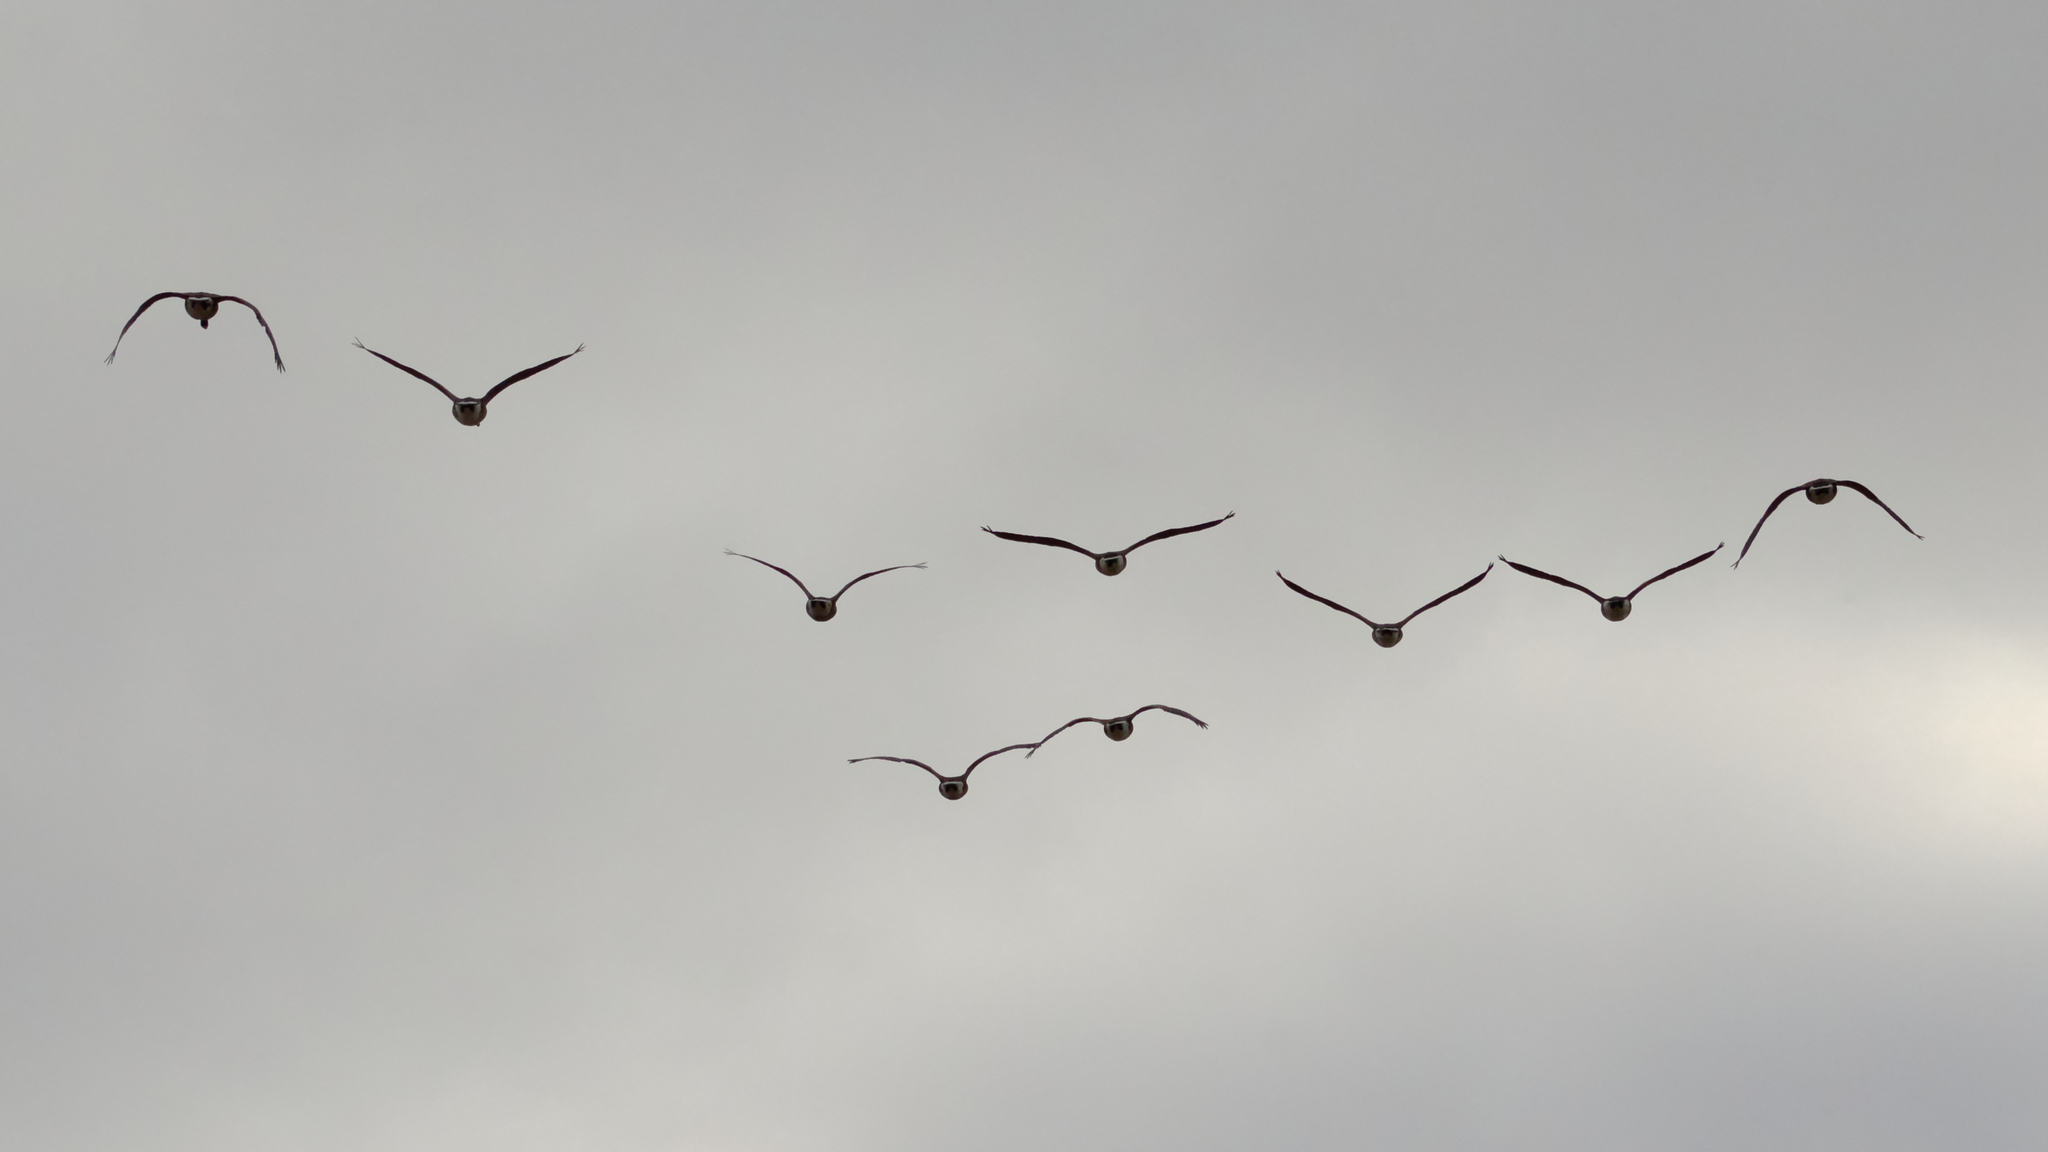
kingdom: Animalia
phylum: Chordata
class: Aves
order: Anseriformes
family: Anatidae
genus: Branta
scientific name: Branta canadensis
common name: Canada goose
